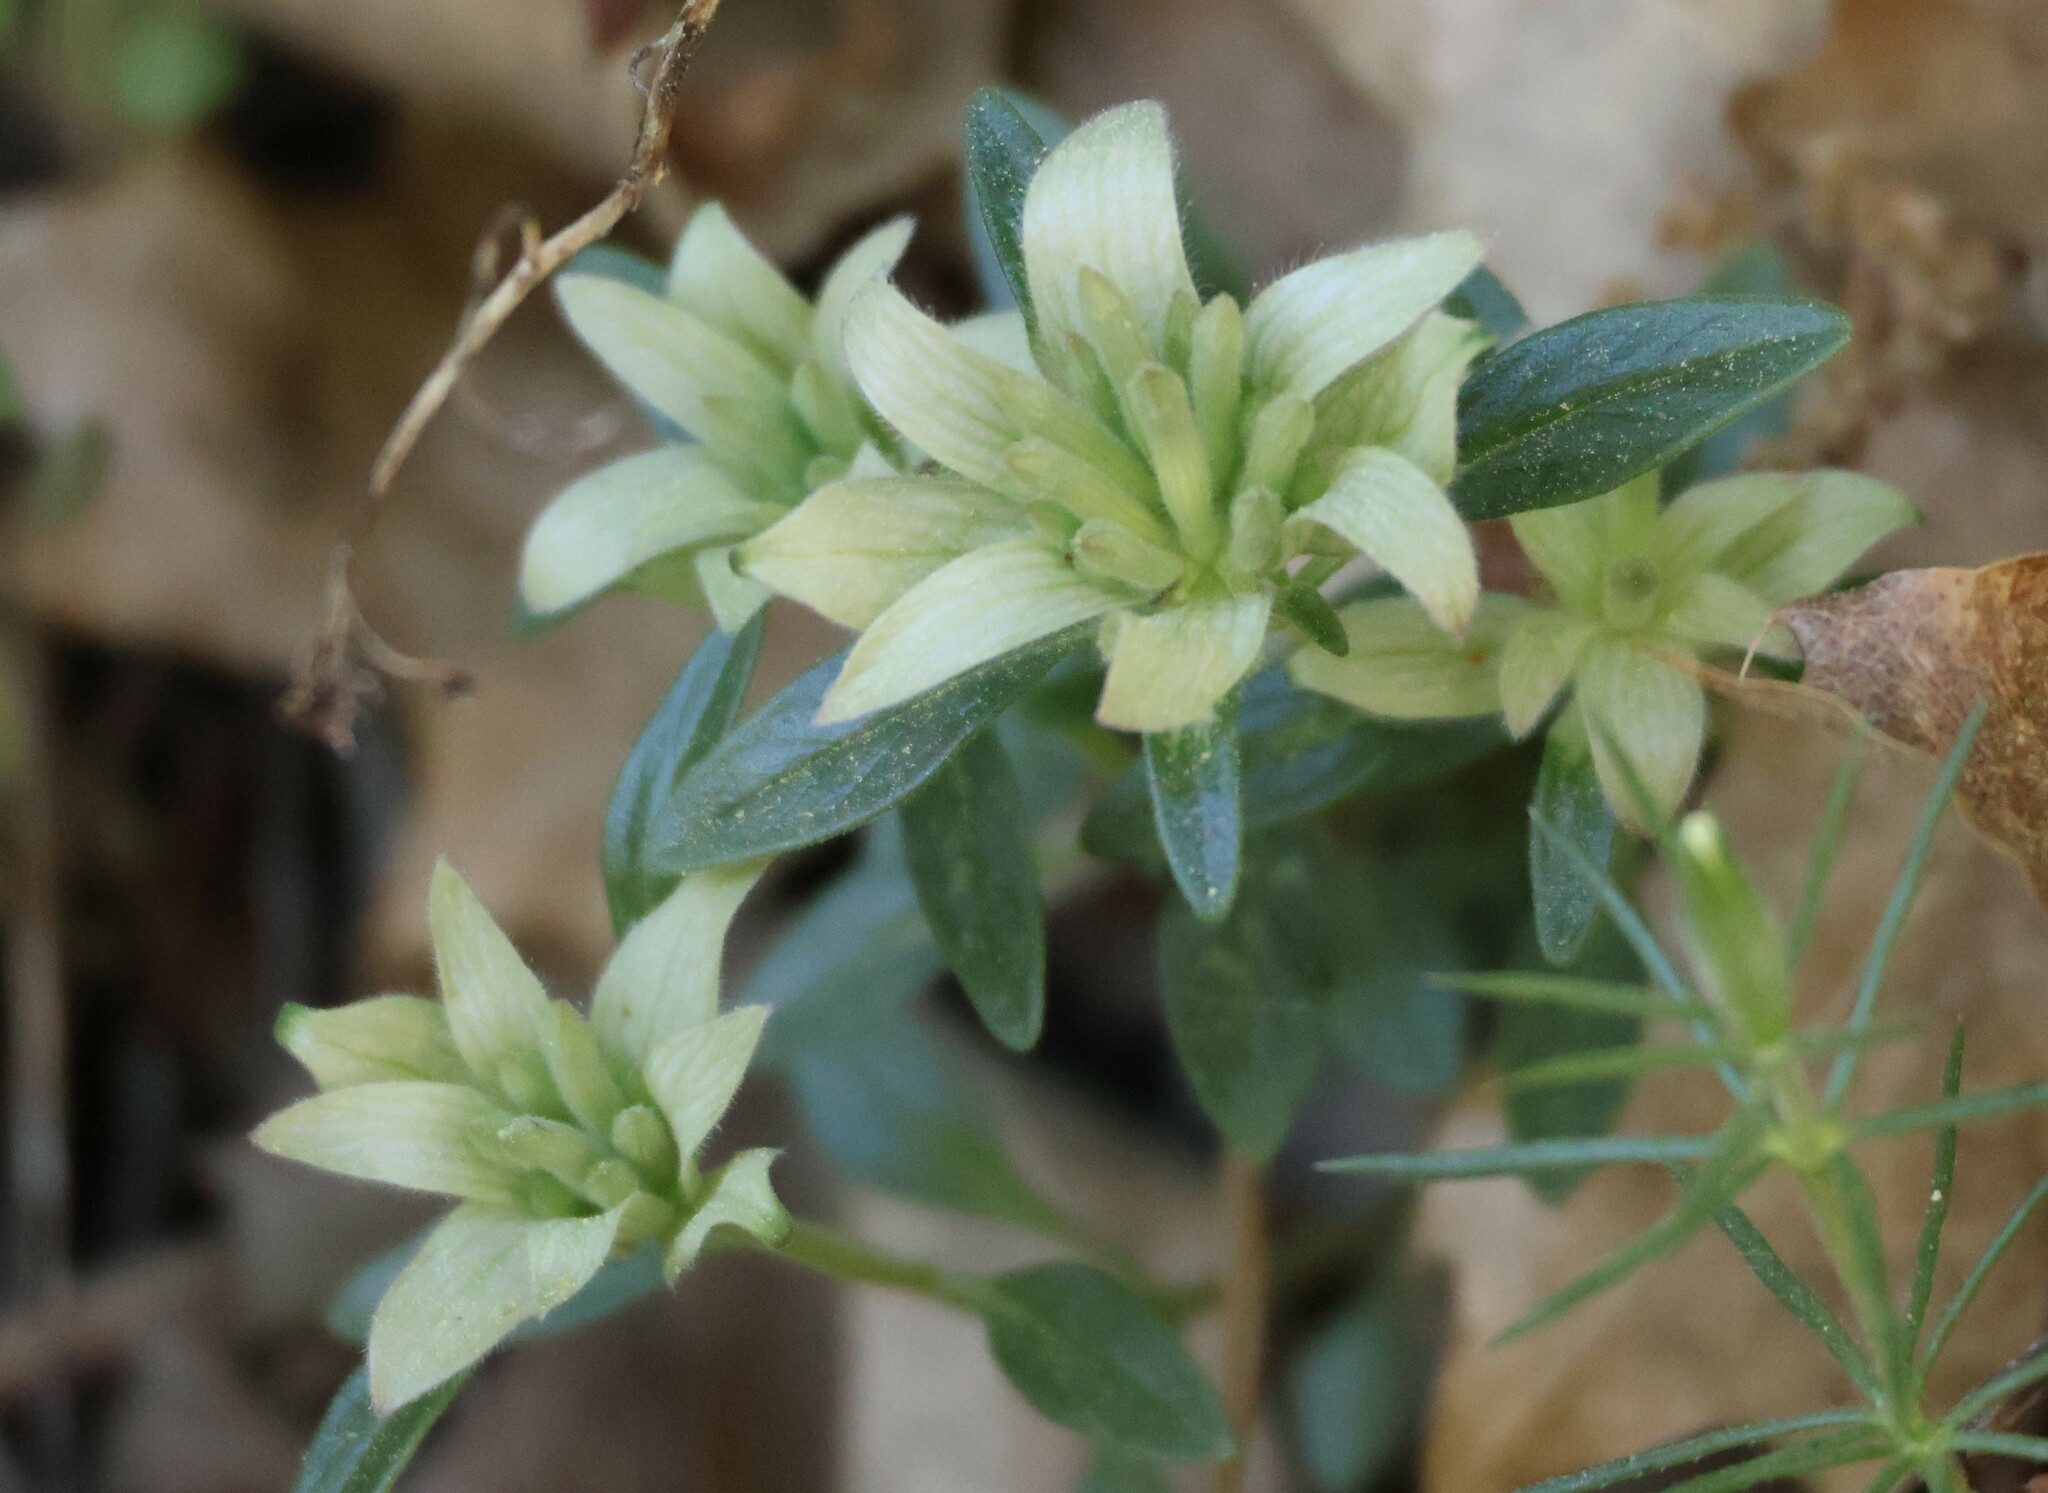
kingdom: Plantae
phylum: Tracheophyta
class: Magnoliopsida
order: Lamiales
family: Lamiaceae
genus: Monardella
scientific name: Monardella nana
